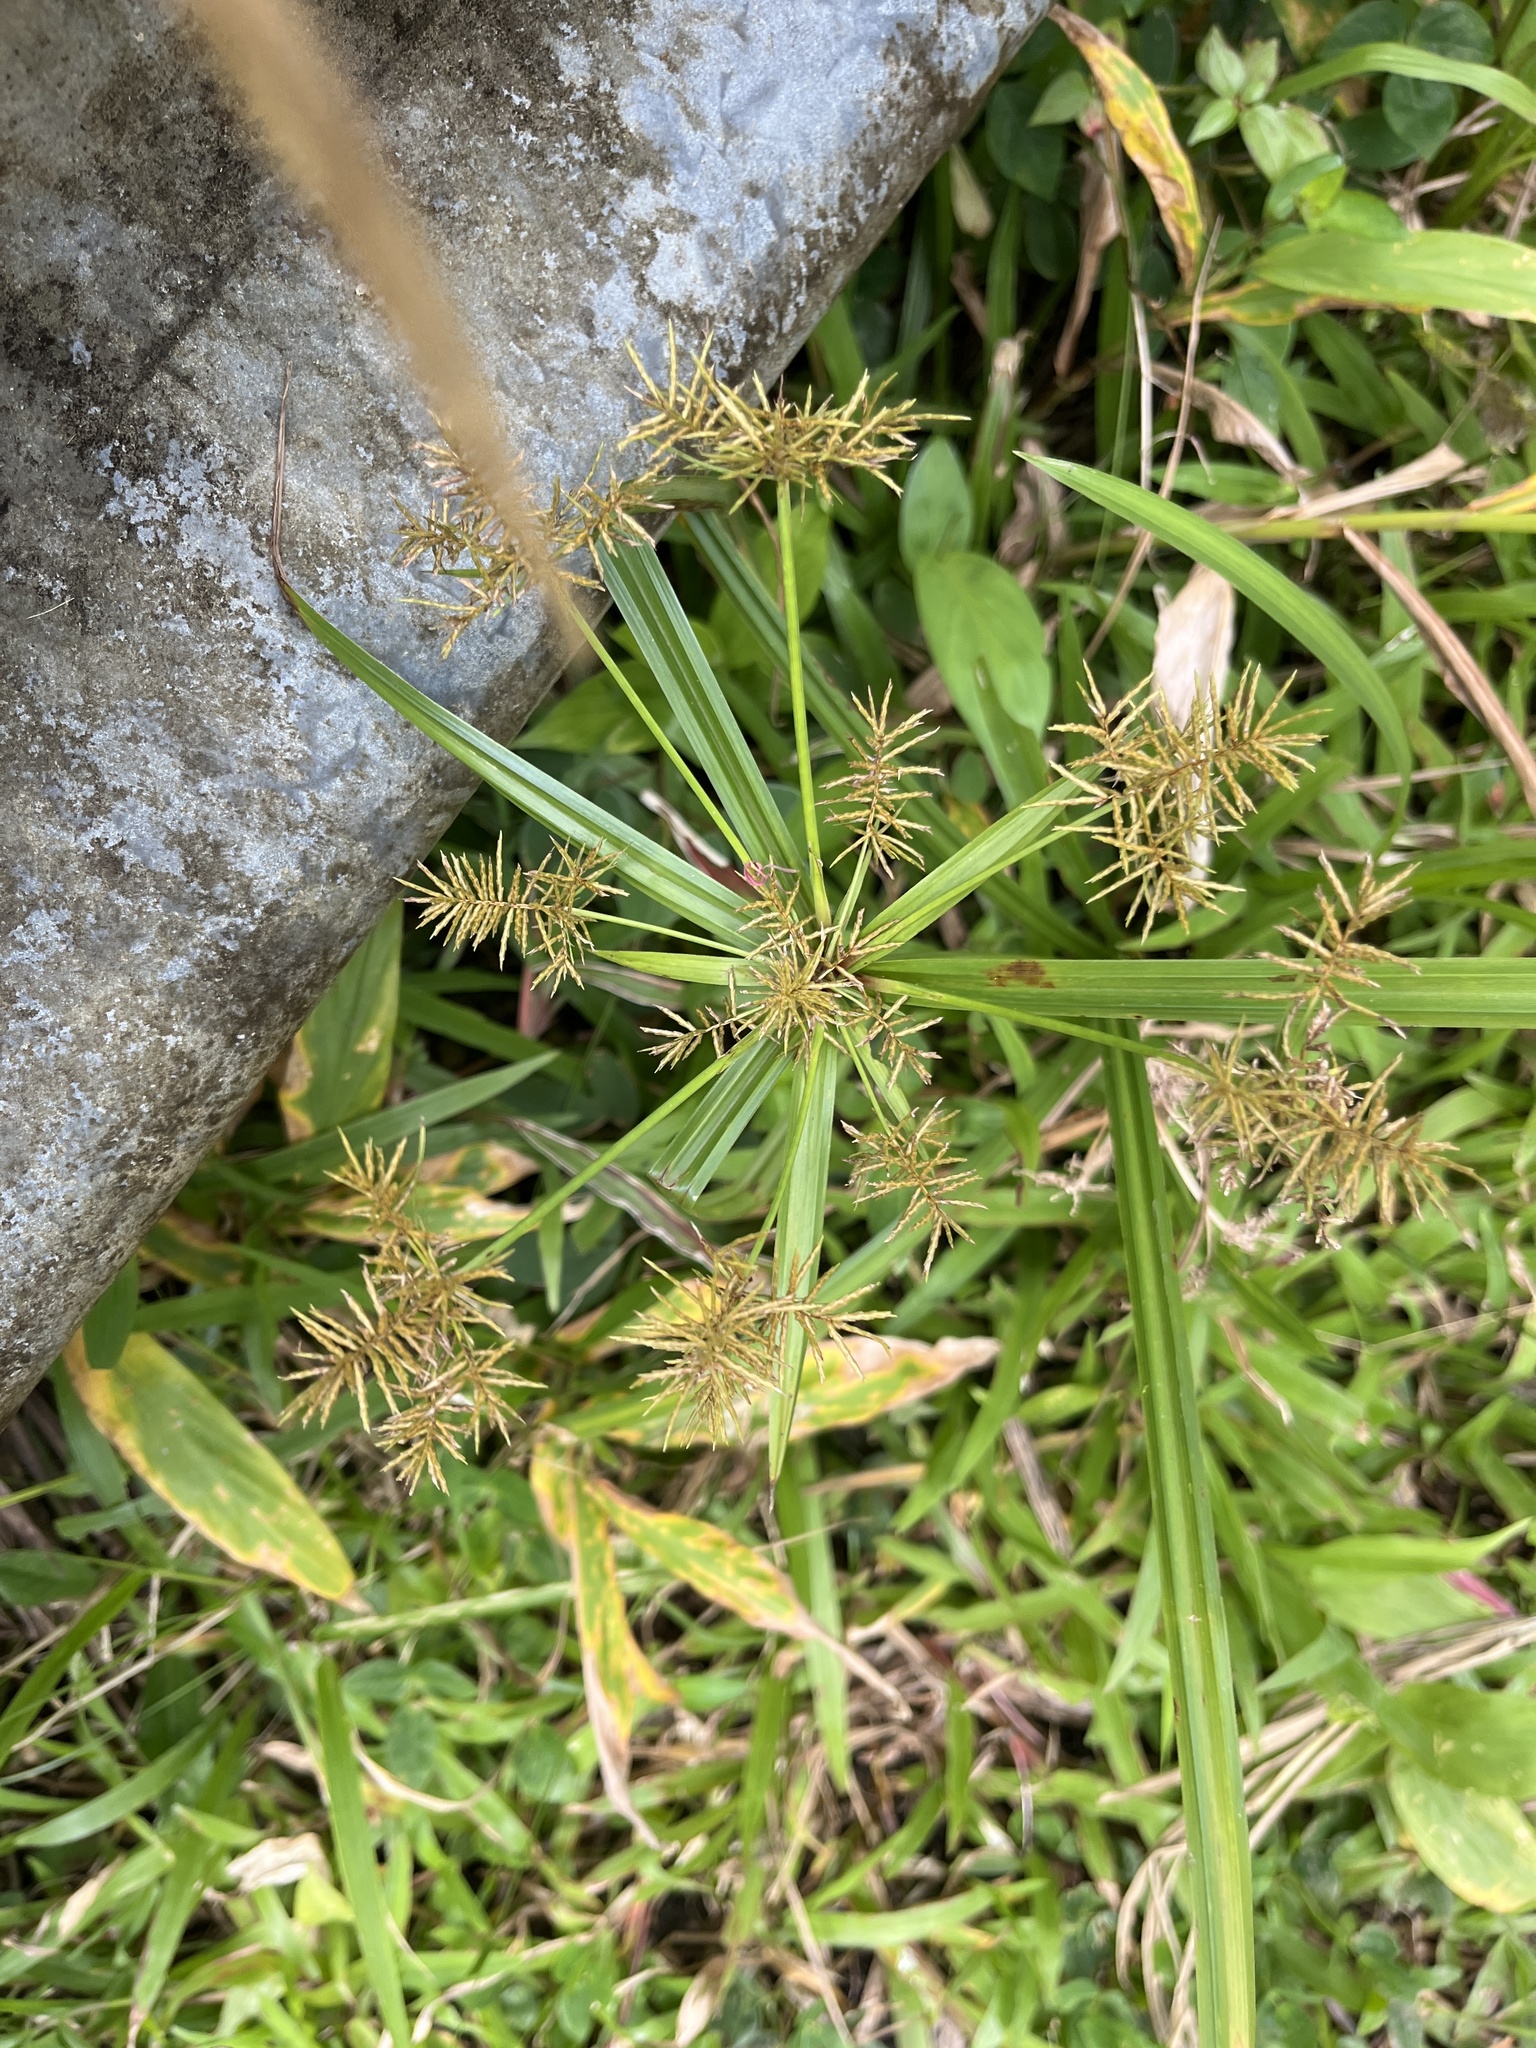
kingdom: Plantae
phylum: Tracheophyta
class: Liliopsida
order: Poales
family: Cyperaceae
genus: Cyperus
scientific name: Cyperus odoratus
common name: Fragrant flatsedge
